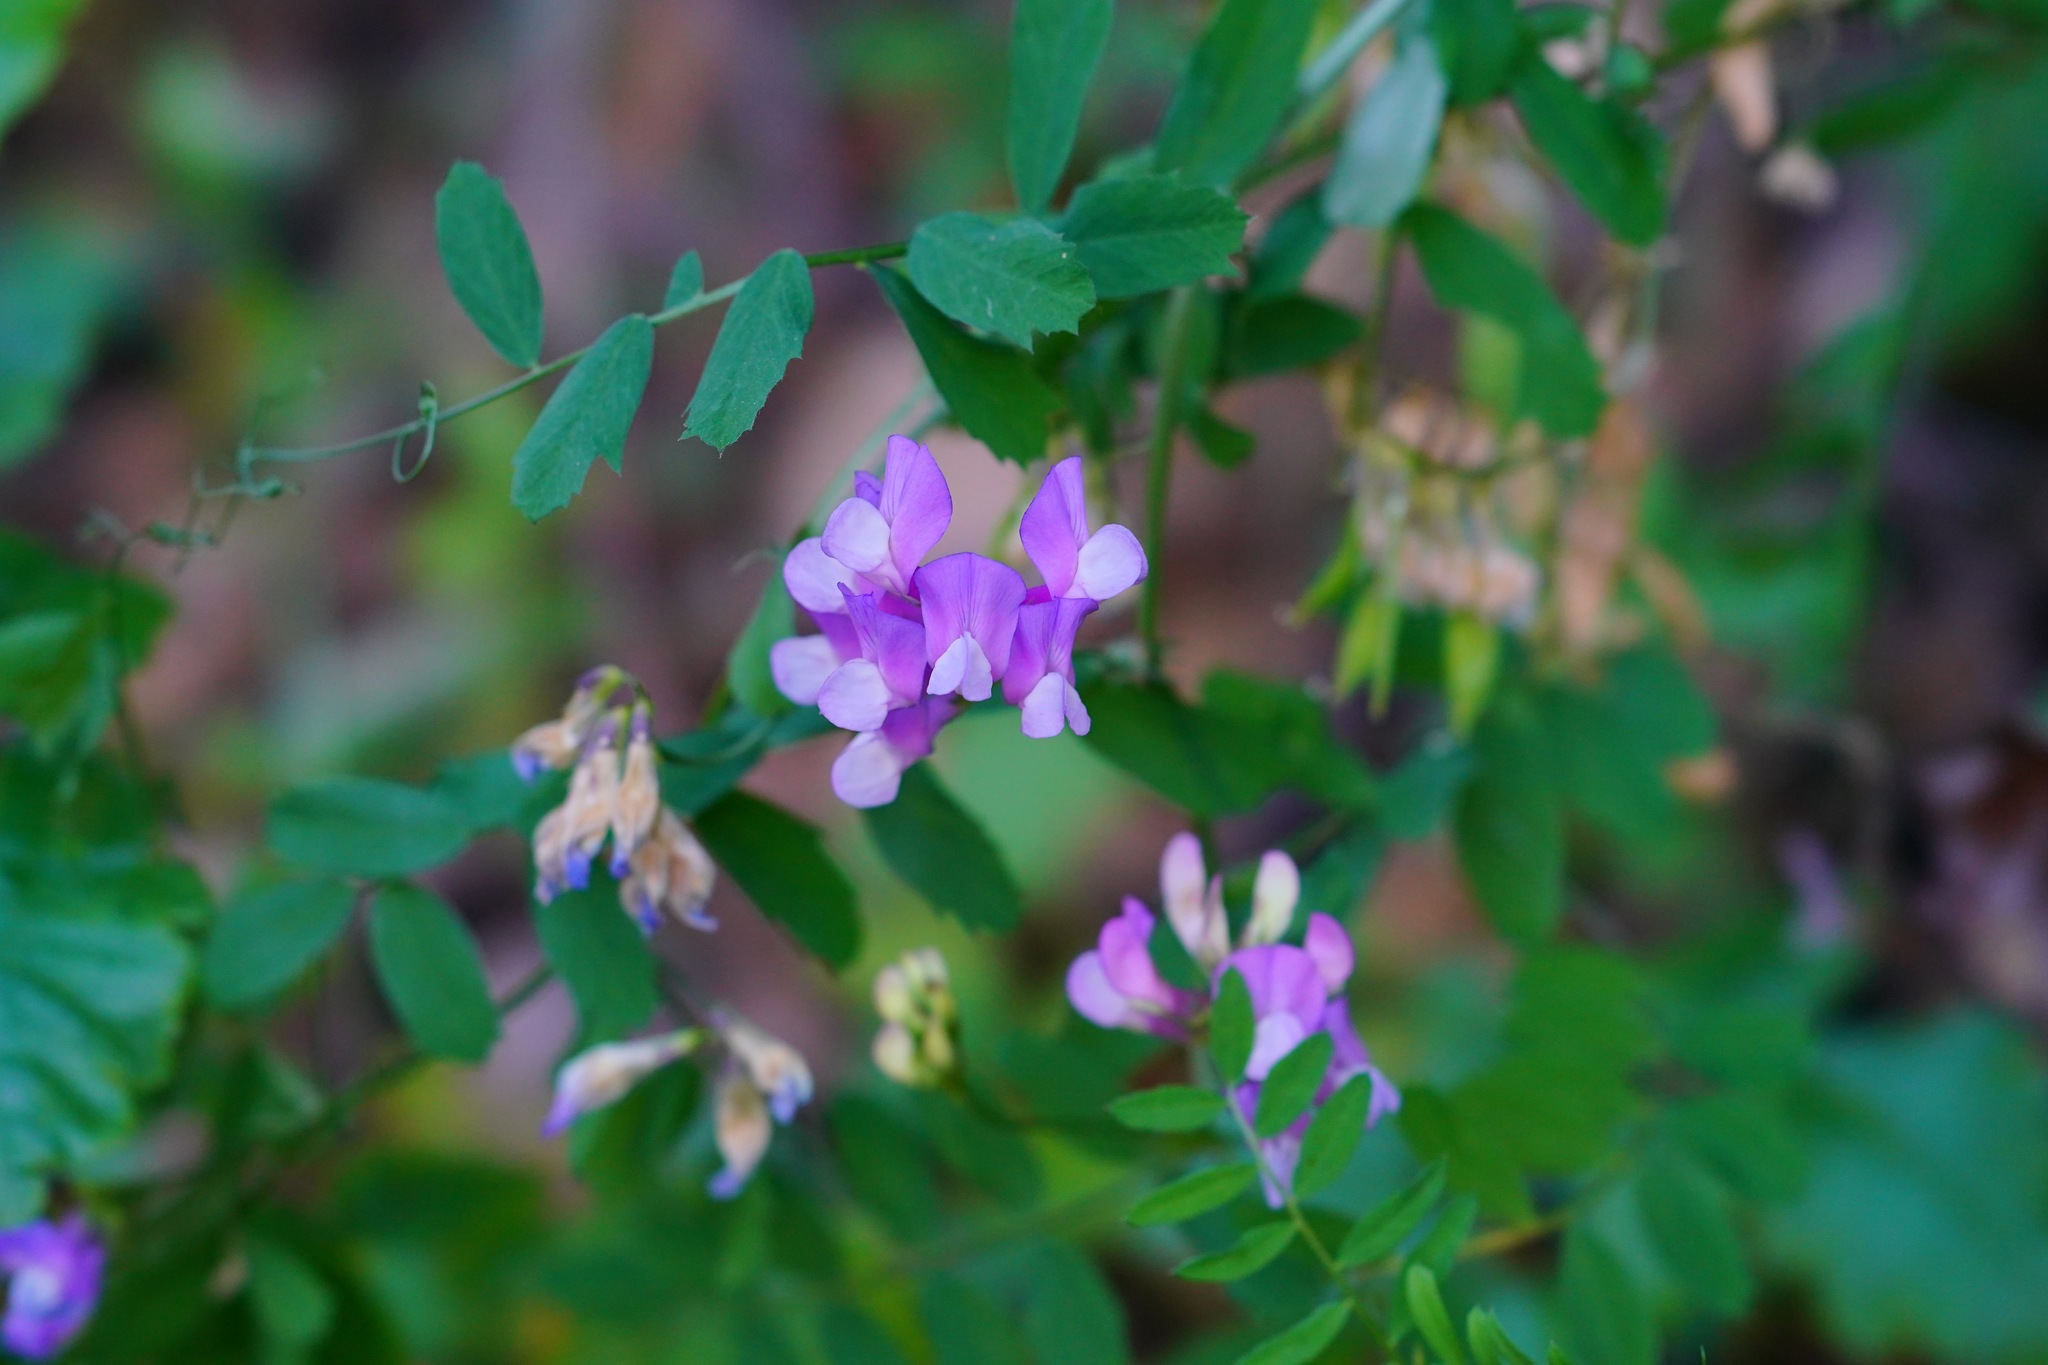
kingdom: Plantae
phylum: Tracheophyta
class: Magnoliopsida
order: Fabales
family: Fabaceae
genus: Vicia
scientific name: Vicia americana
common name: American vetch
